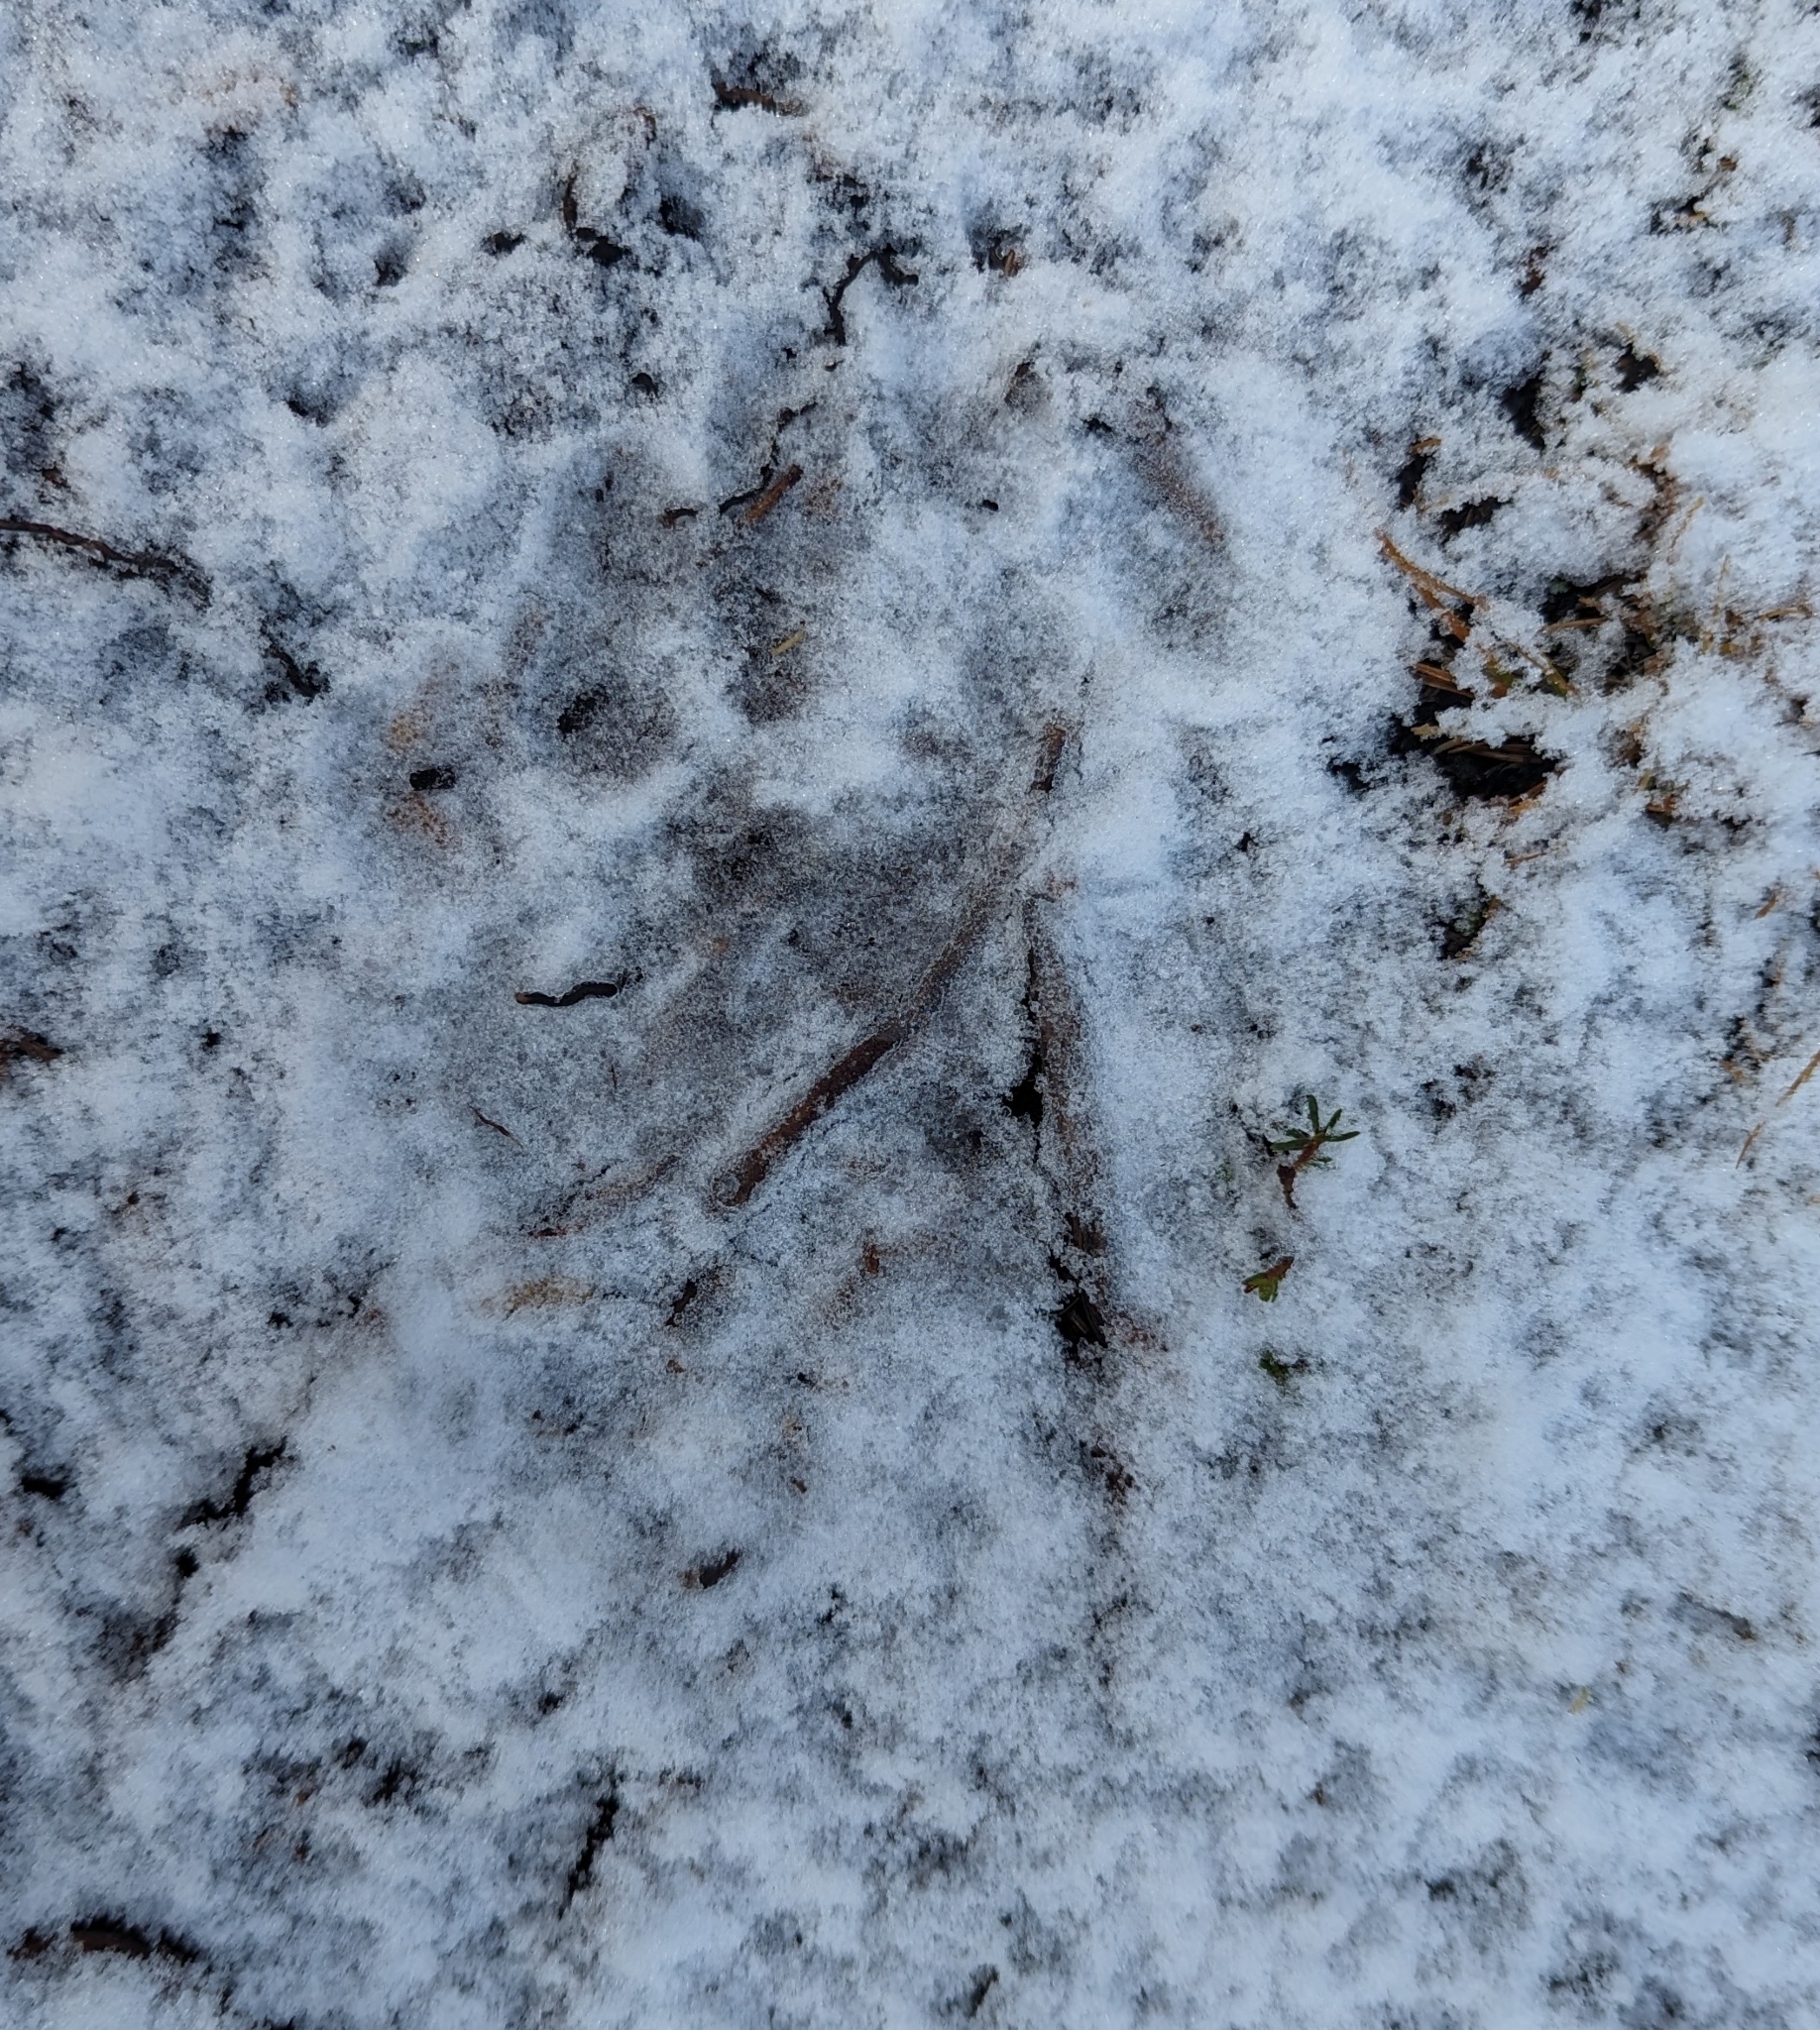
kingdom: Animalia
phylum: Chordata
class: Mammalia
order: Carnivora
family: Ursidae
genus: Ursus
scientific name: Ursus americanus
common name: American black bear
